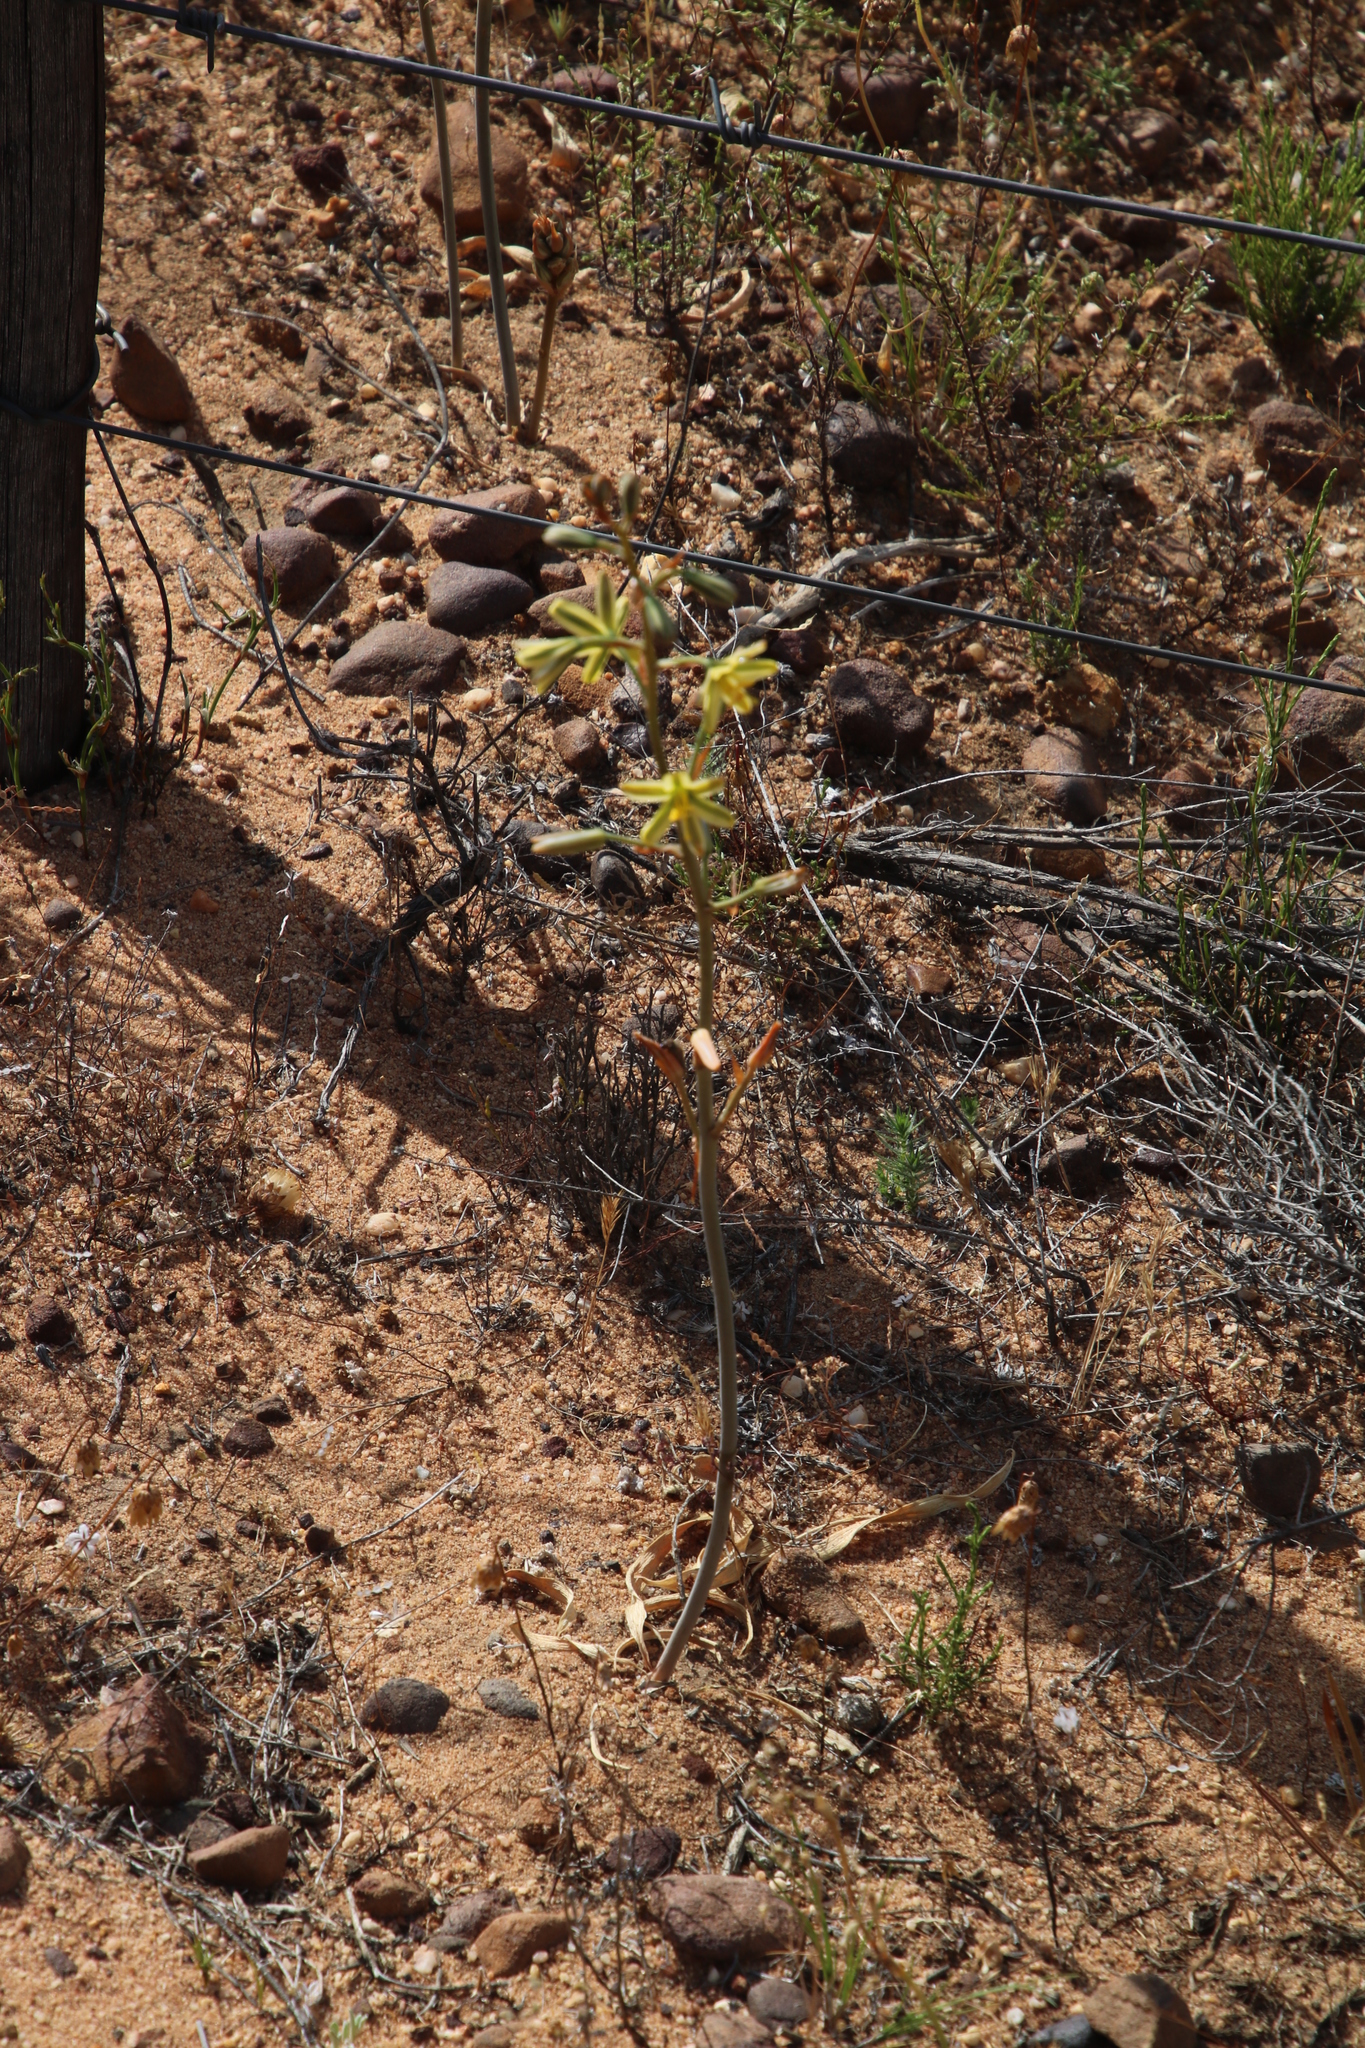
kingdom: Plantae
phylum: Tracheophyta
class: Liliopsida
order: Asparagales
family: Asparagaceae
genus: Albuca
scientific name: Albuca suaveolens
